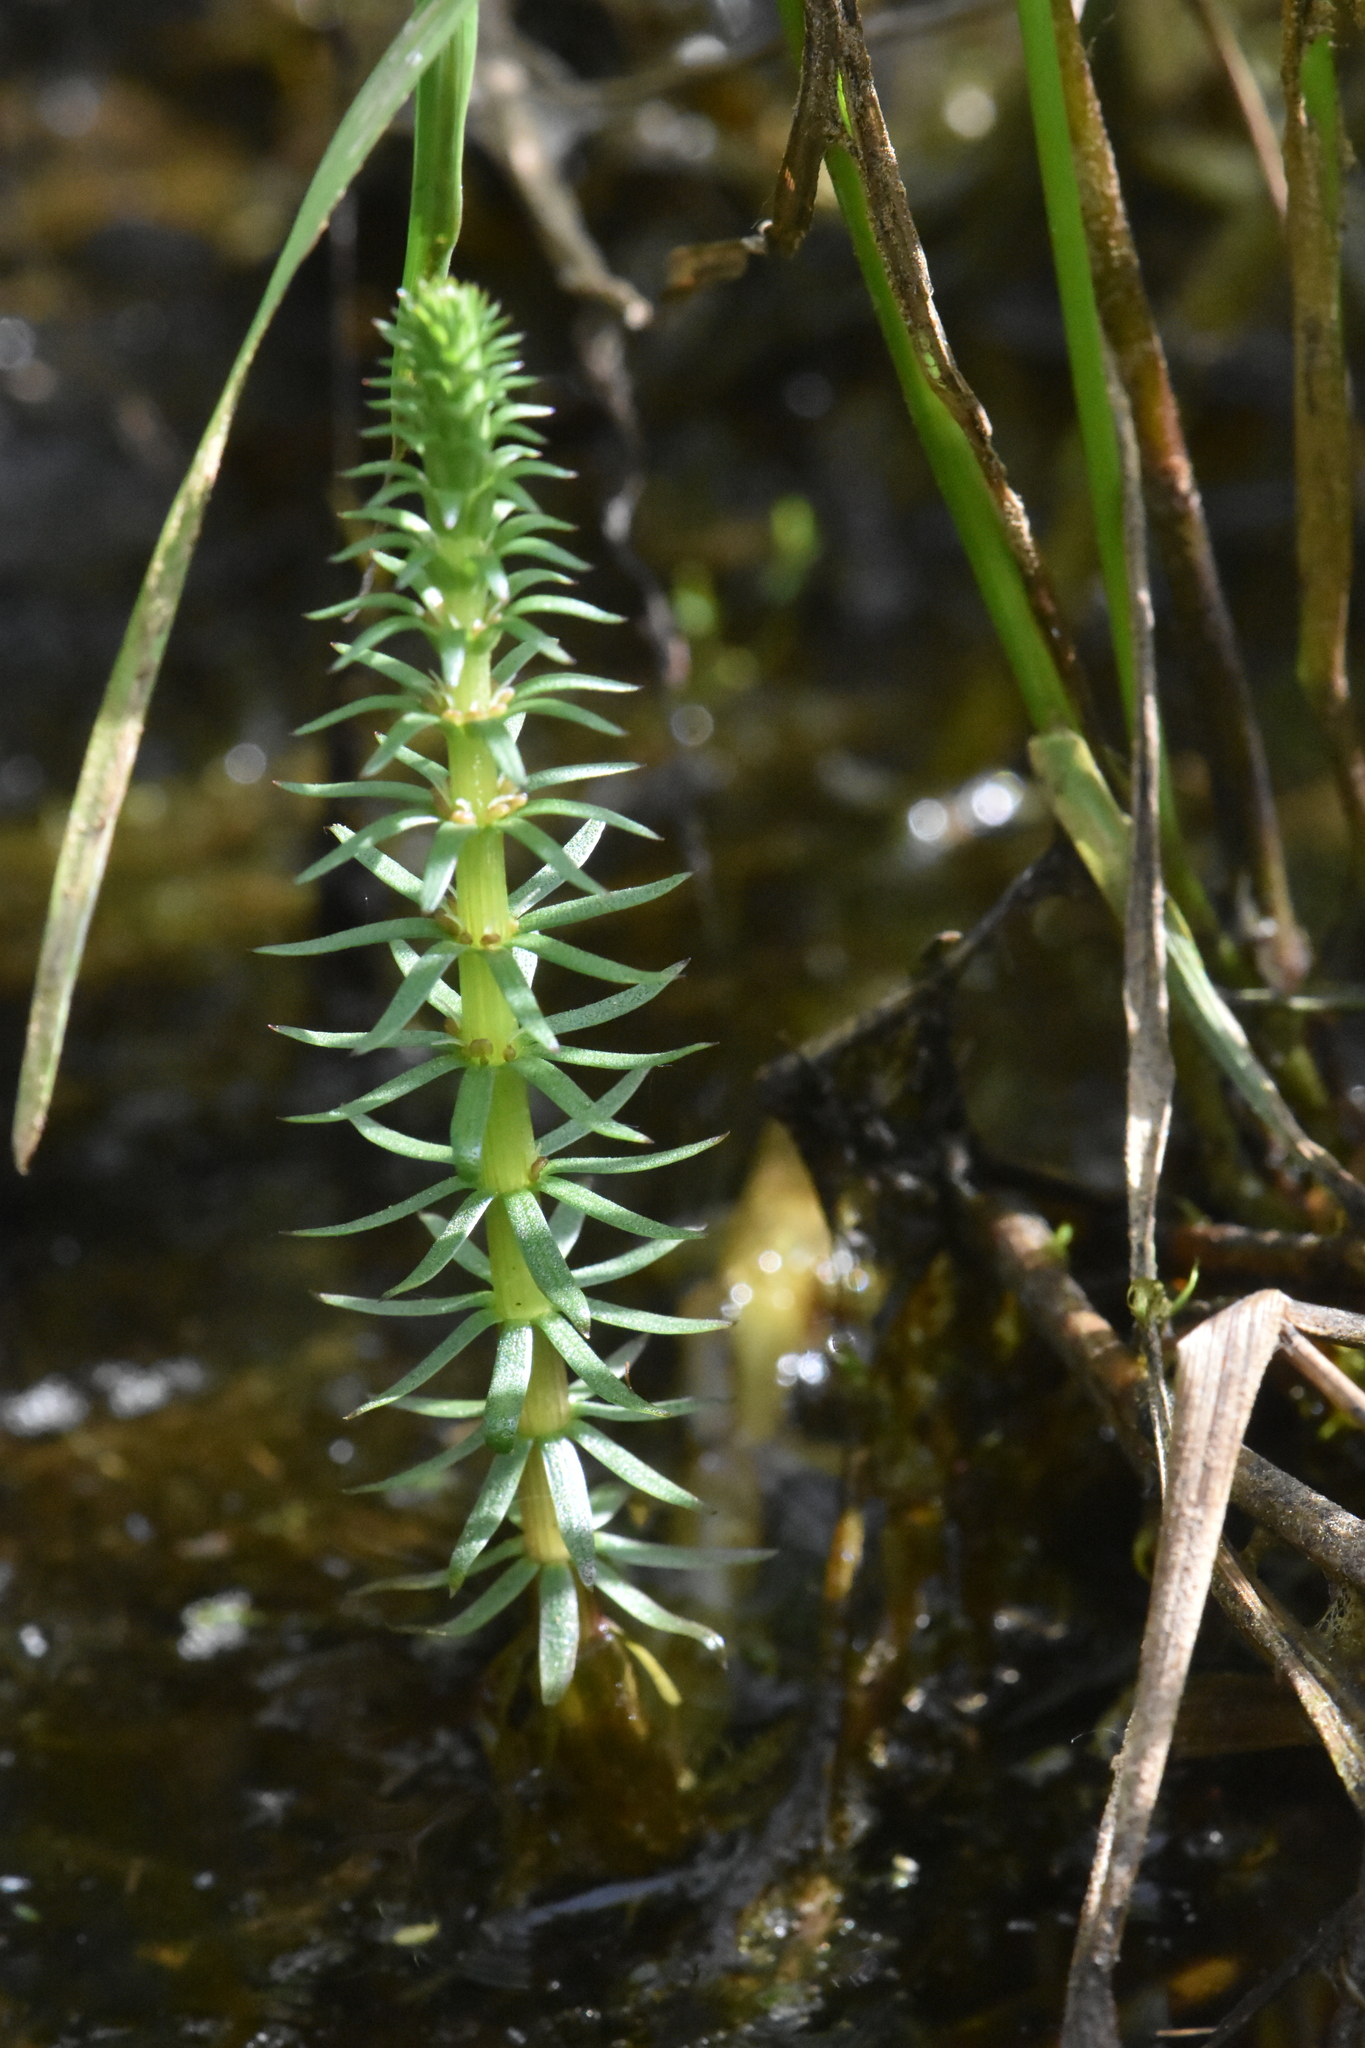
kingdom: Plantae
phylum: Tracheophyta
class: Magnoliopsida
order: Lamiales
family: Plantaginaceae
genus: Hippuris
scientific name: Hippuris vulgaris
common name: Mare's-tail
